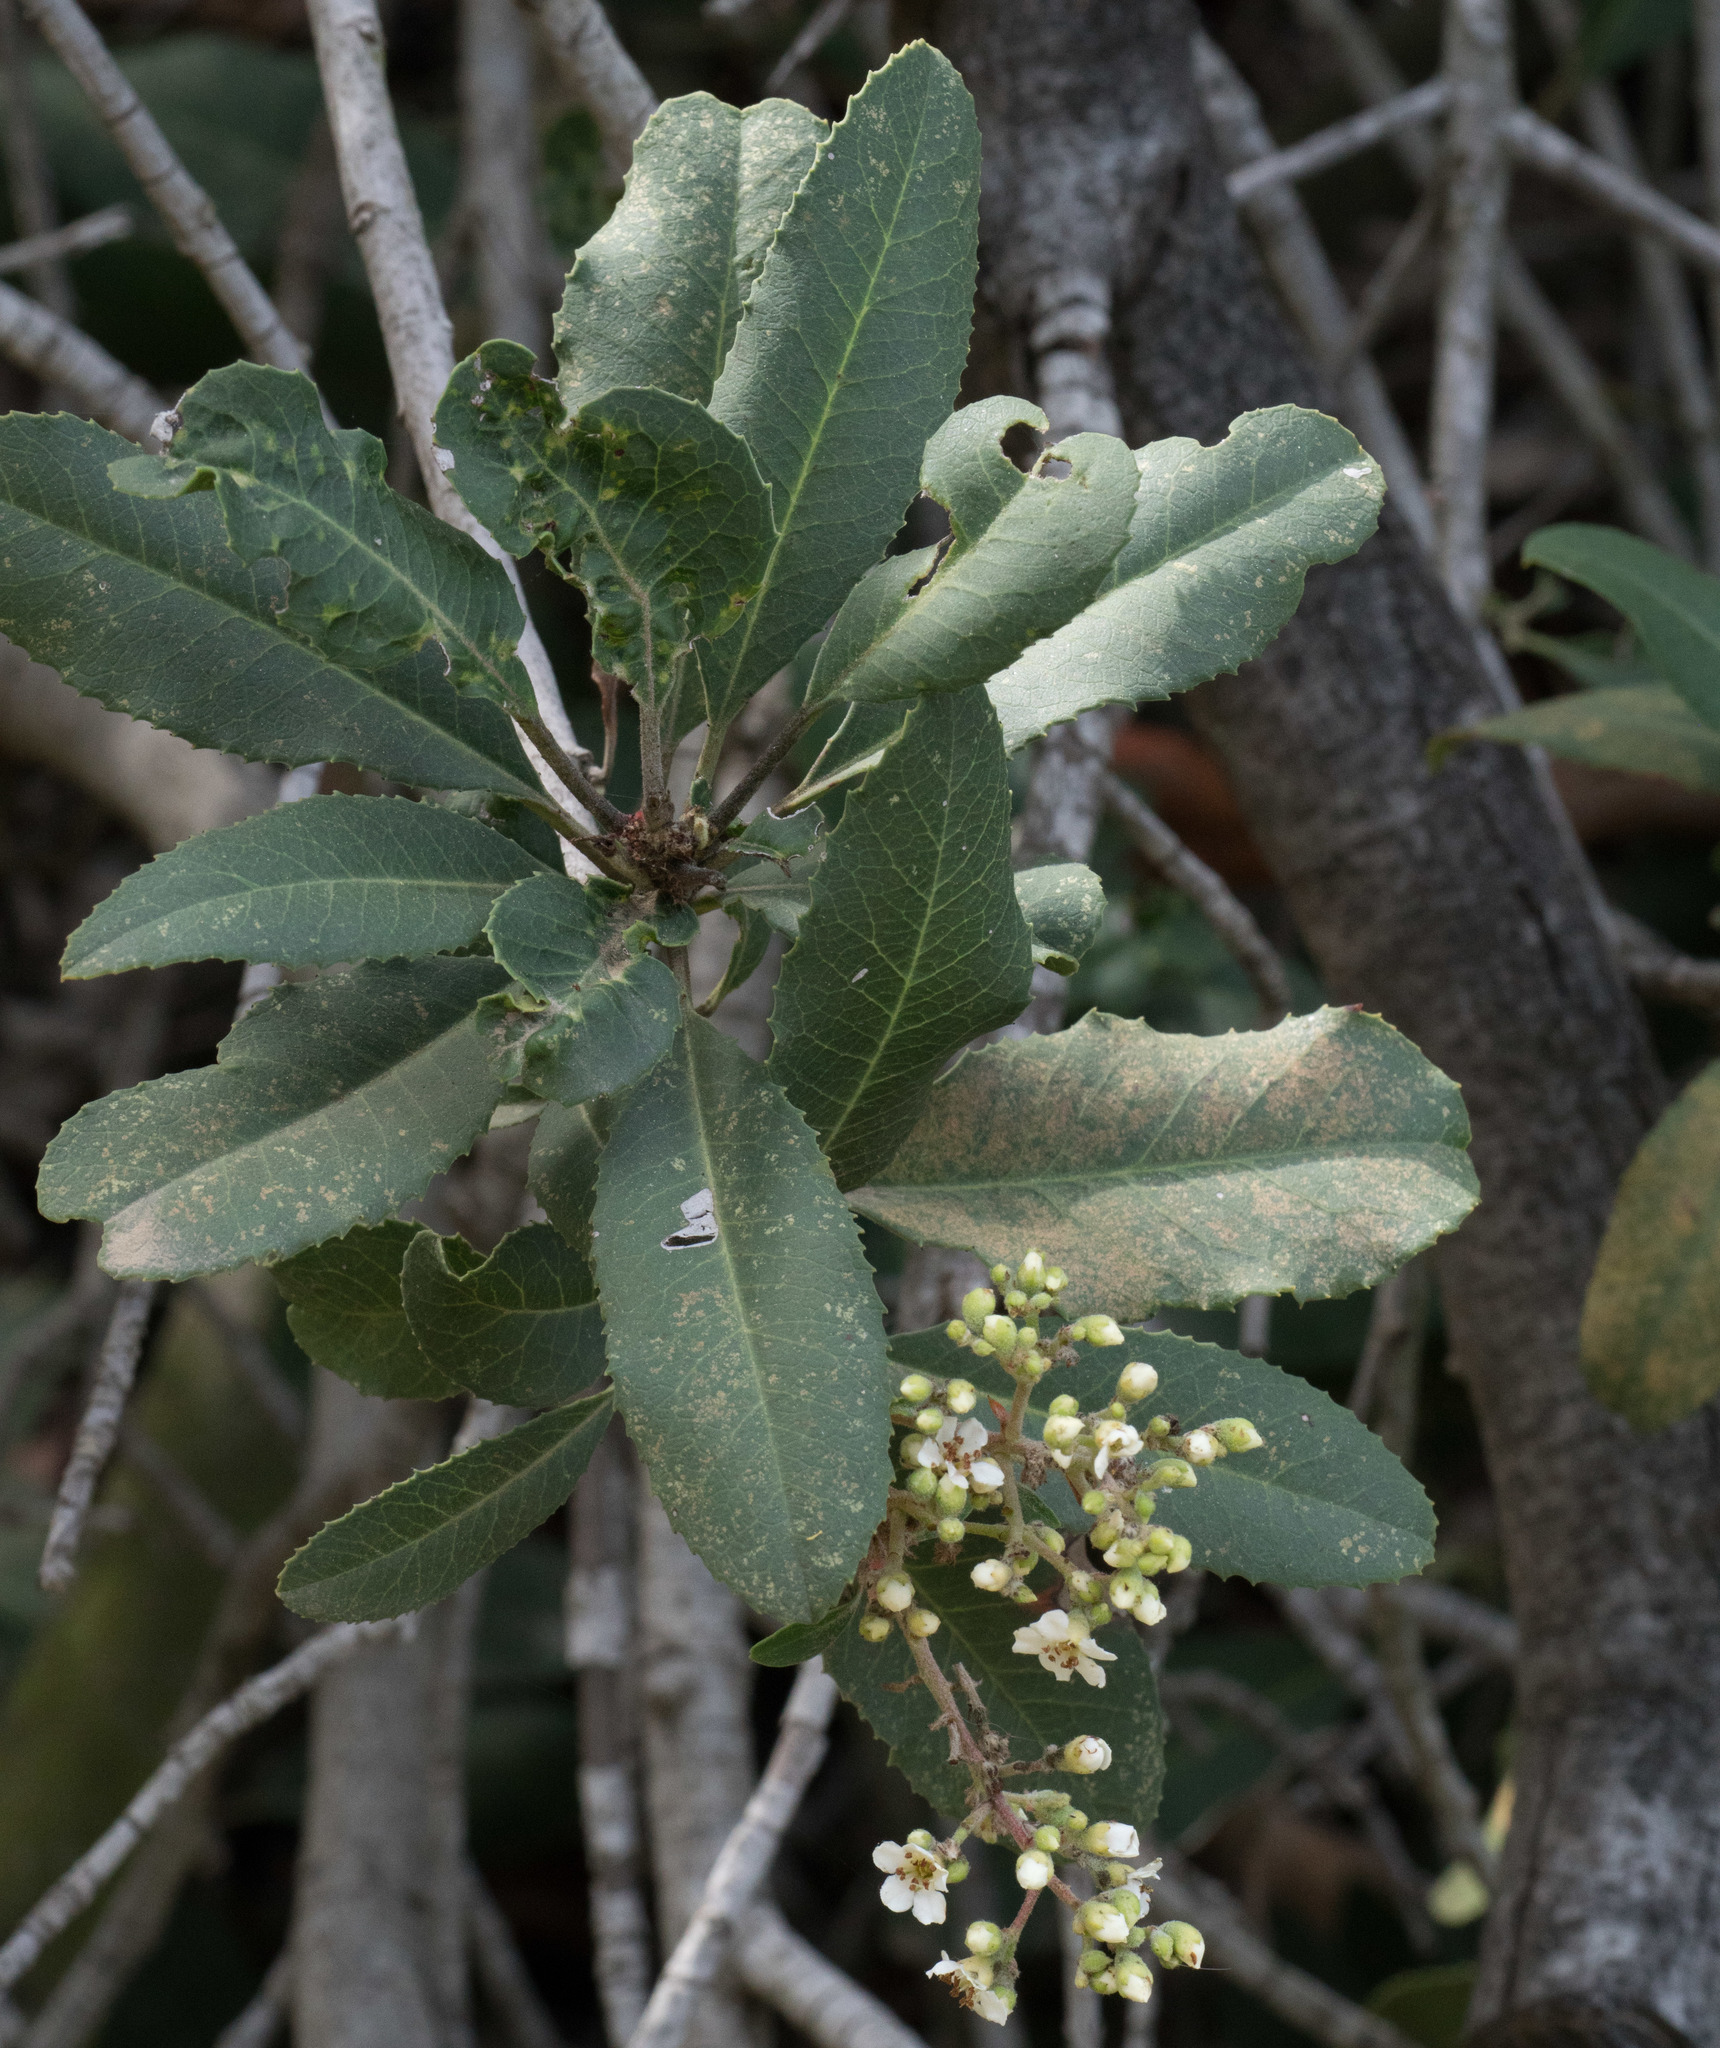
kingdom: Plantae
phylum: Tracheophyta
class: Magnoliopsida
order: Rosales
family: Rosaceae
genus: Heteromeles
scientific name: Heteromeles arbutifolia
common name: California-holly
